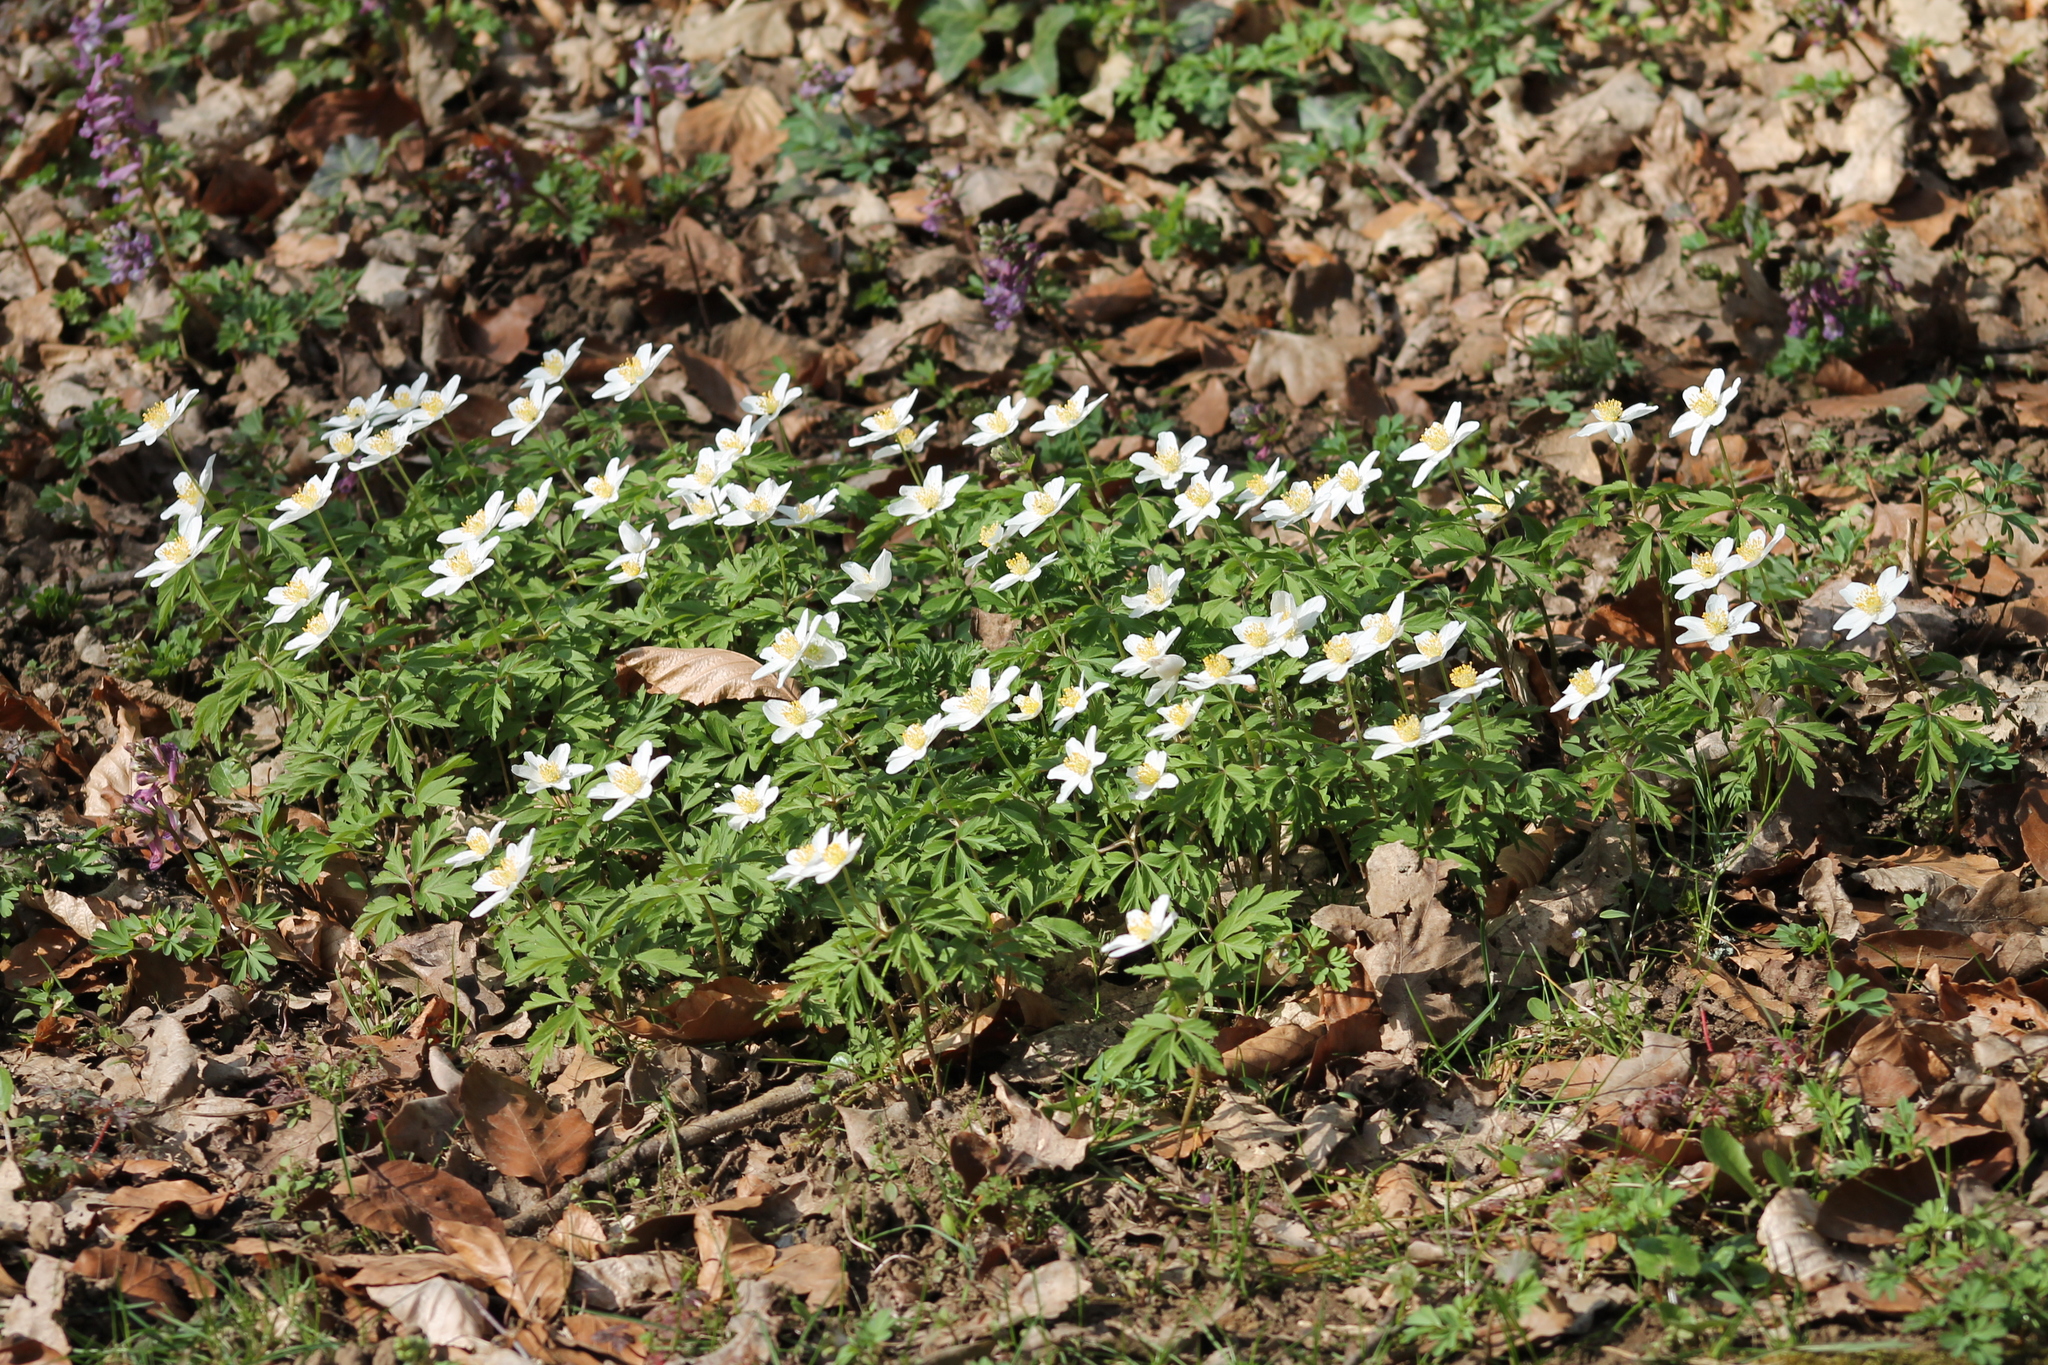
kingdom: Plantae
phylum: Tracheophyta
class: Magnoliopsida
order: Ranunculales
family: Ranunculaceae
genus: Anemone
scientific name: Anemone nemorosa
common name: Wood anemone
